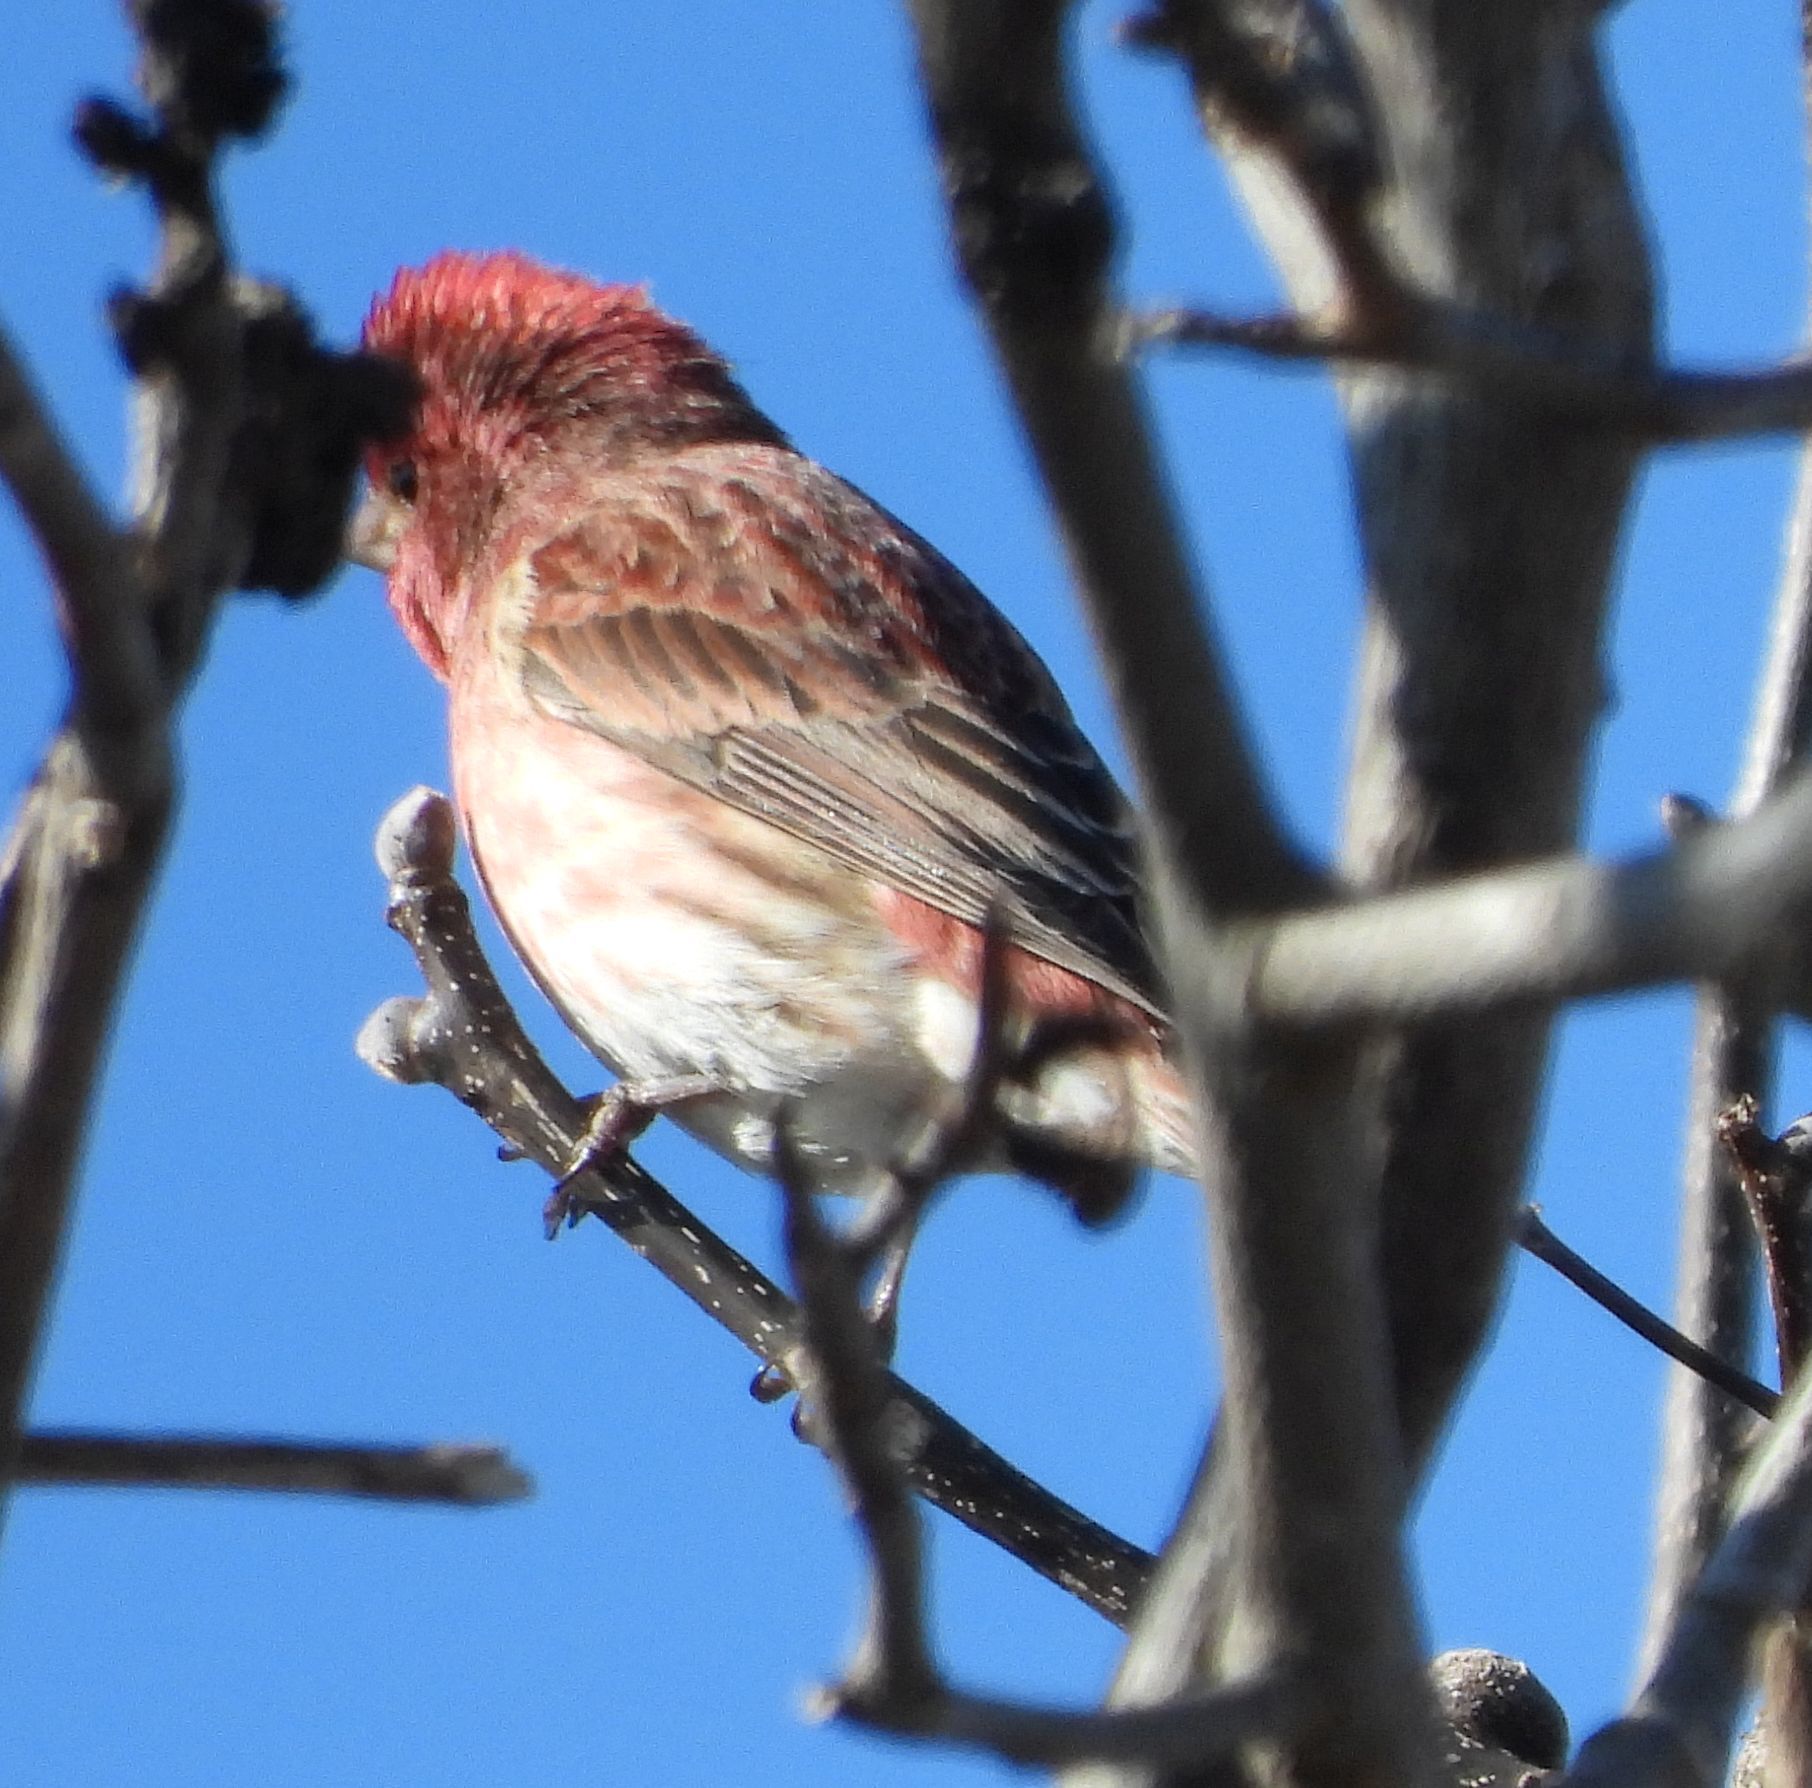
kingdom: Animalia
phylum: Chordata
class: Aves
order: Passeriformes
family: Fringillidae
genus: Haemorhous
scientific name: Haemorhous purpureus
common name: Purple finch
